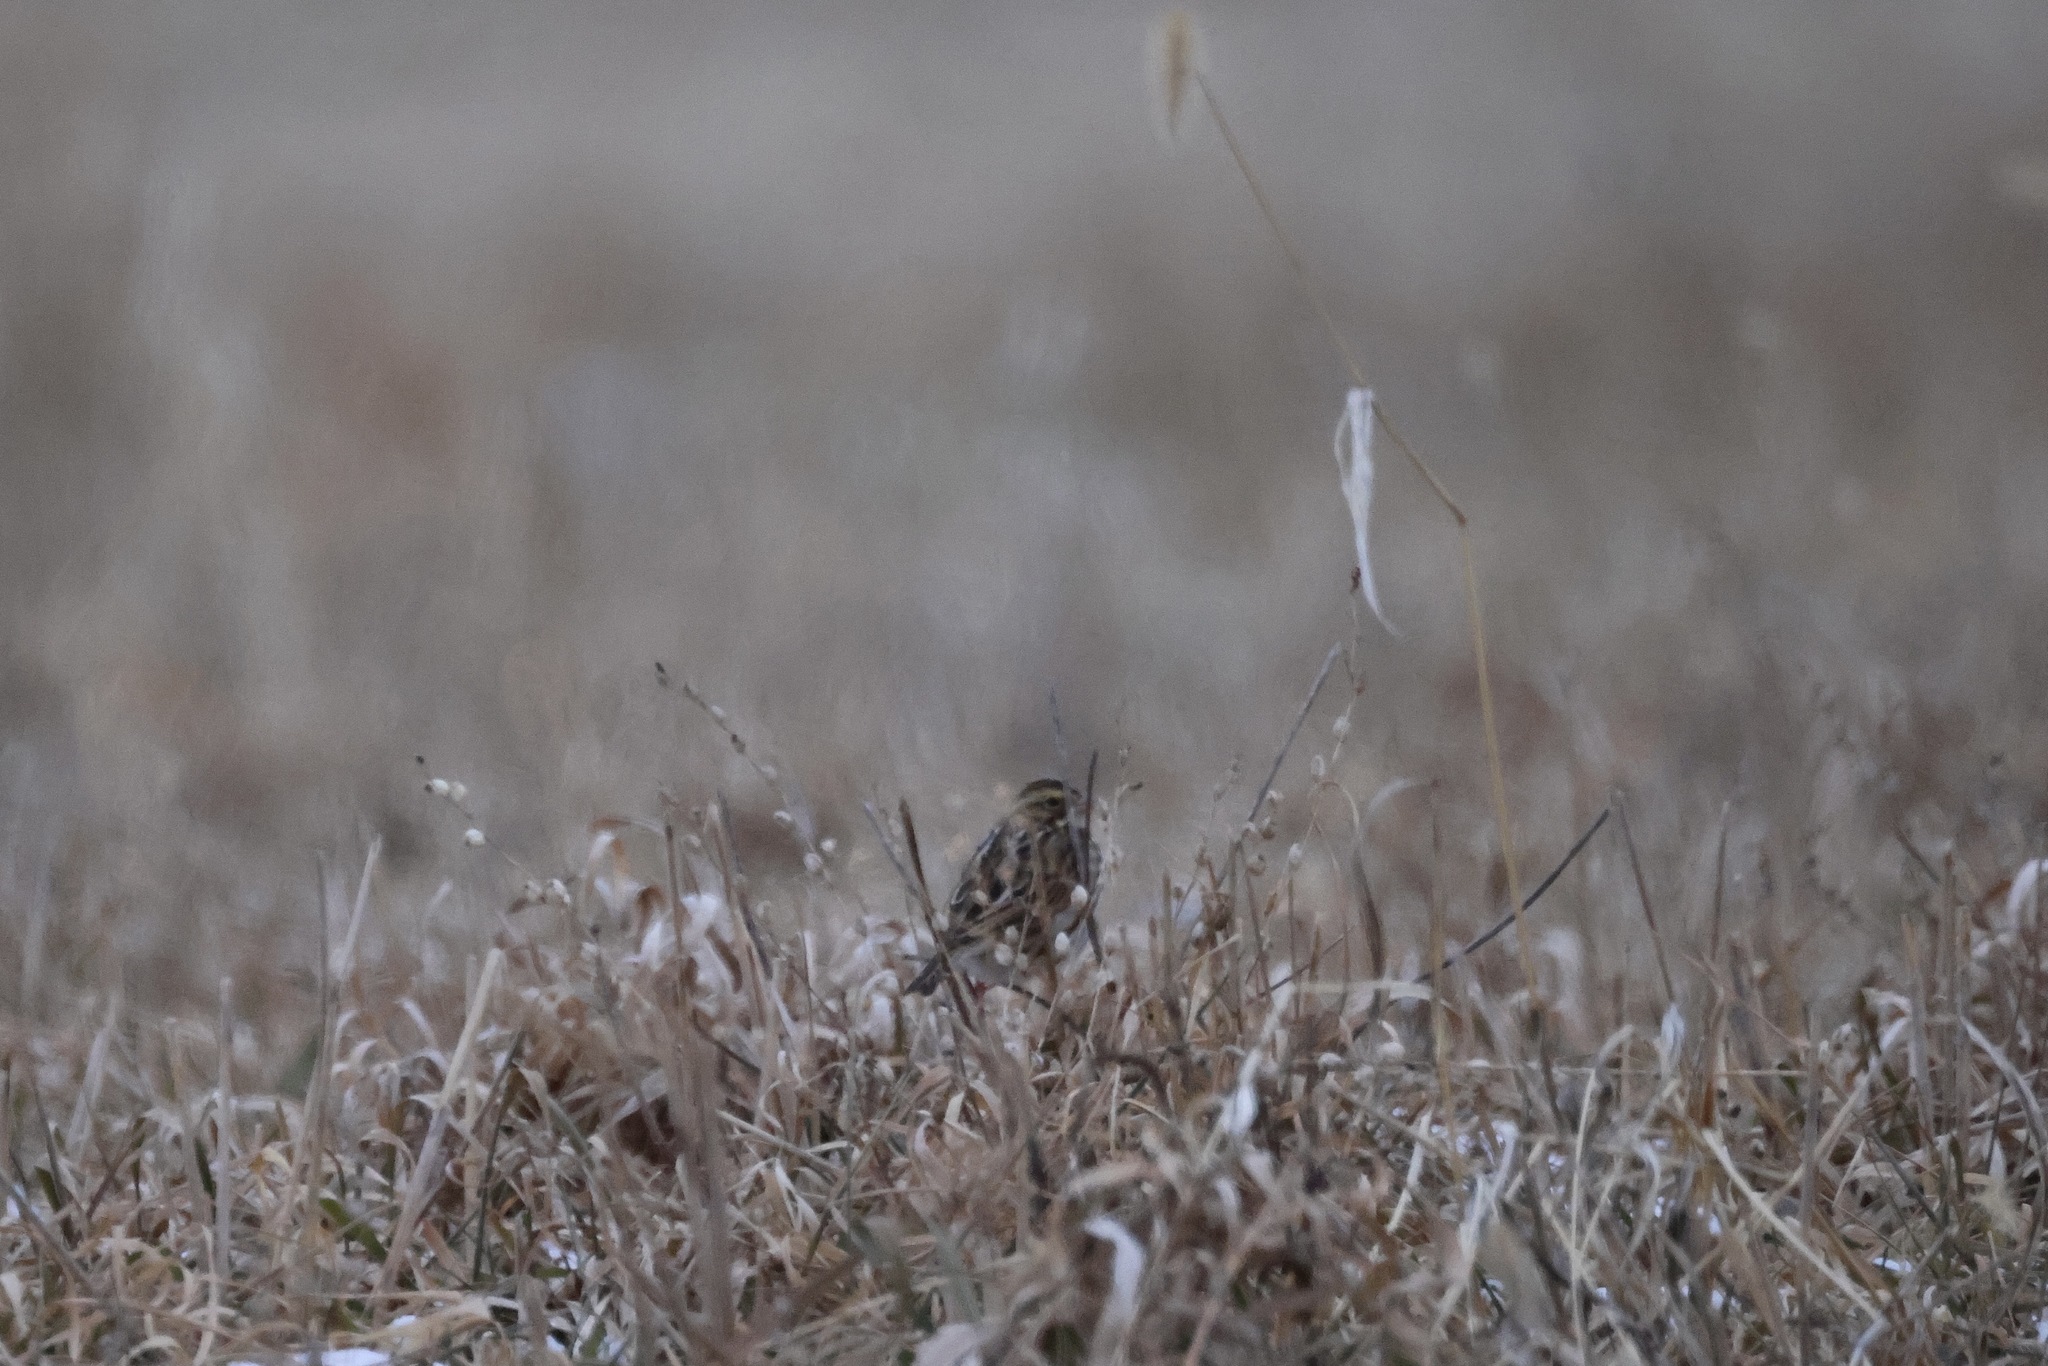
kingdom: Animalia
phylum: Chordata
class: Aves
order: Passeriformes
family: Passerellidae
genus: Passerculus
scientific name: Passerculus sandwichensis
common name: Savannah sparrow
